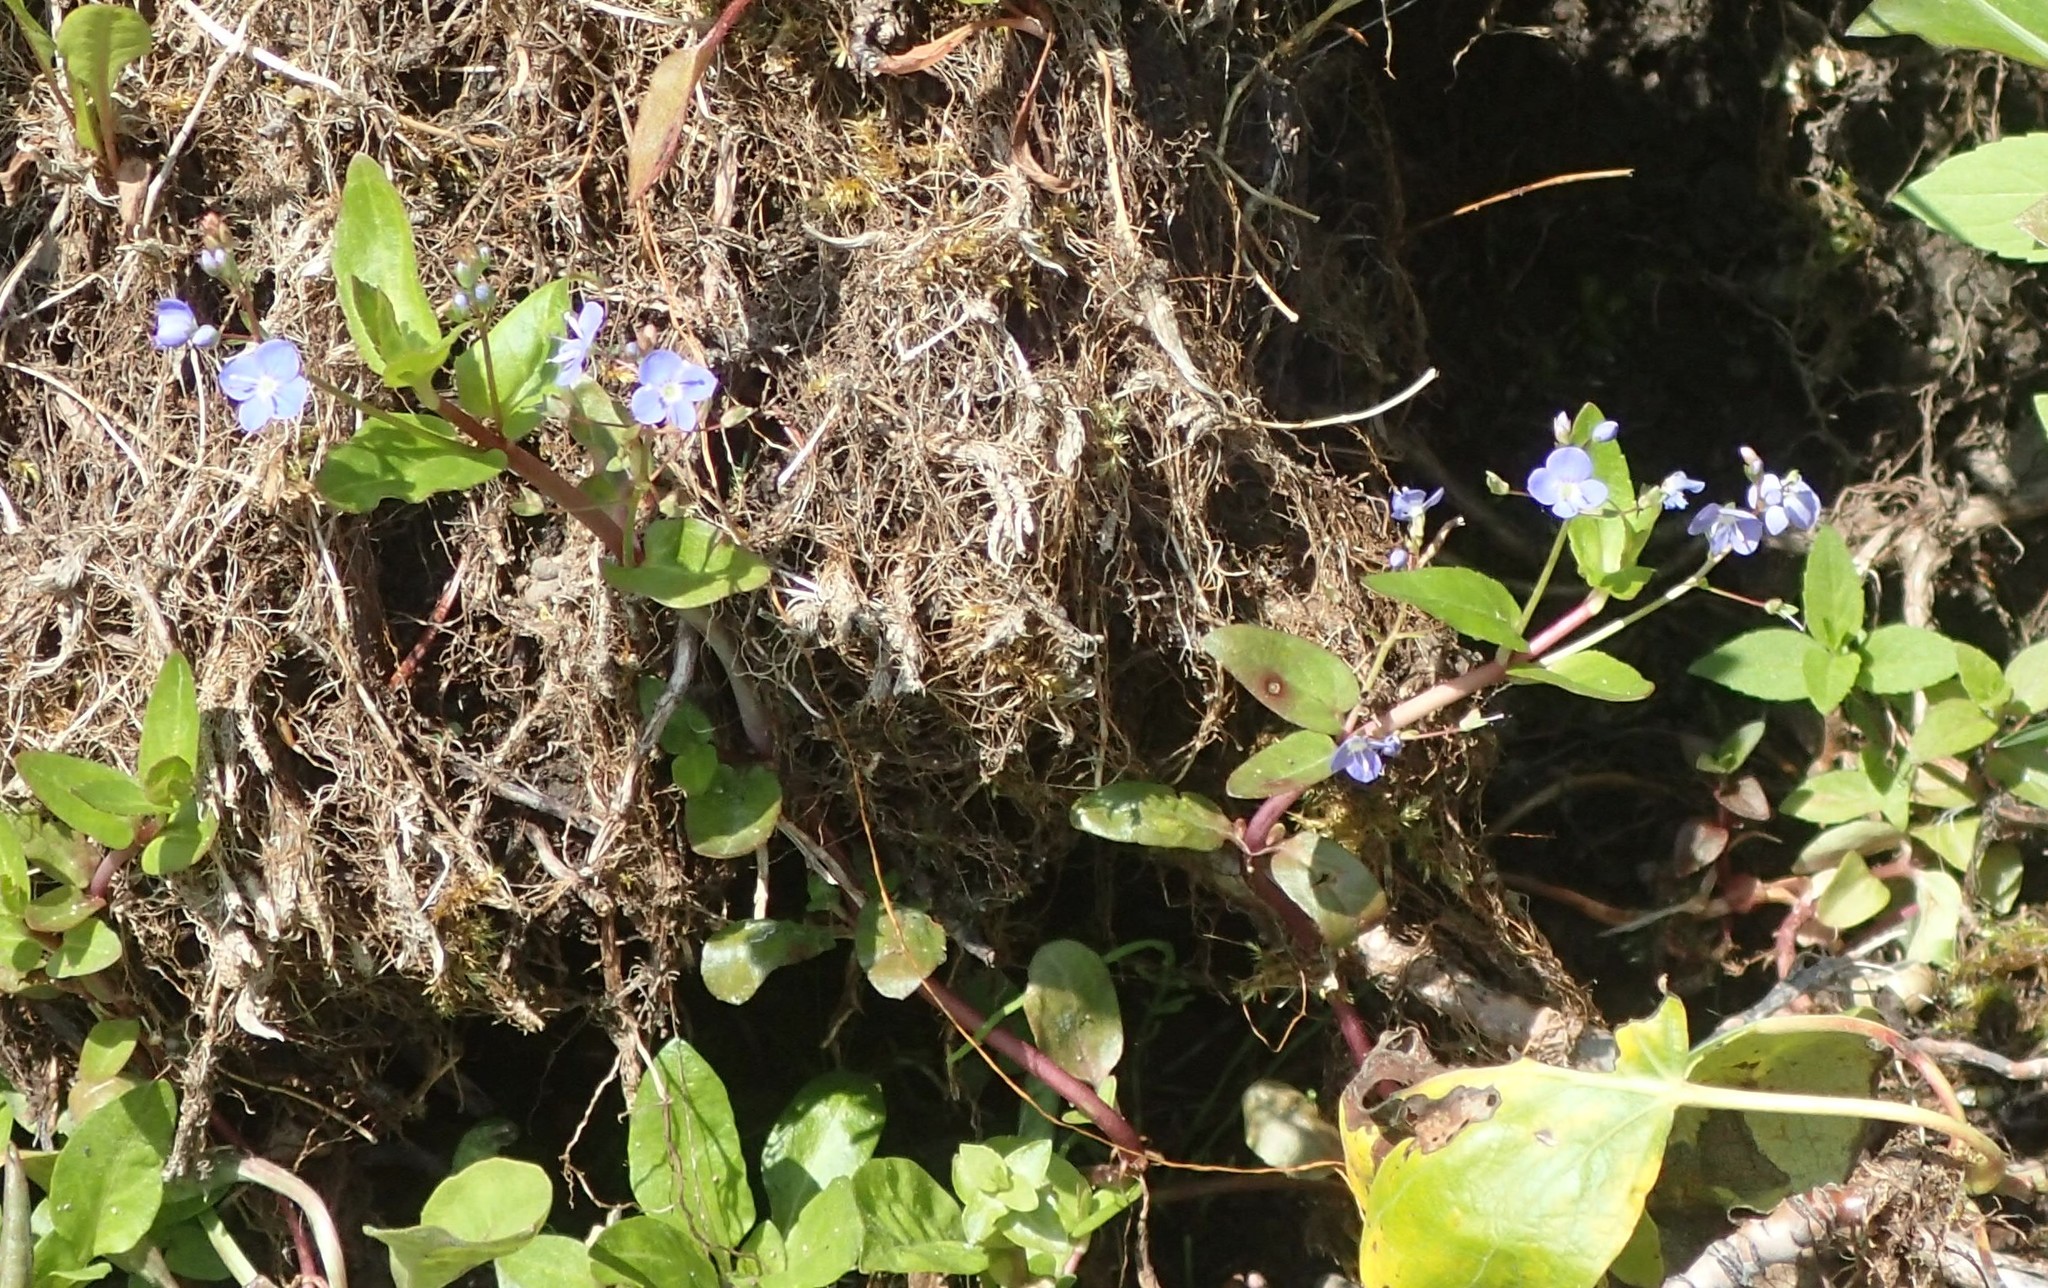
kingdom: Plantae
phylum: Tracheophyta
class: Magnoliopsida
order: Lamiales
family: Plantaginaceae
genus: Veronica
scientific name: Veronica americana
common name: American brooklime
